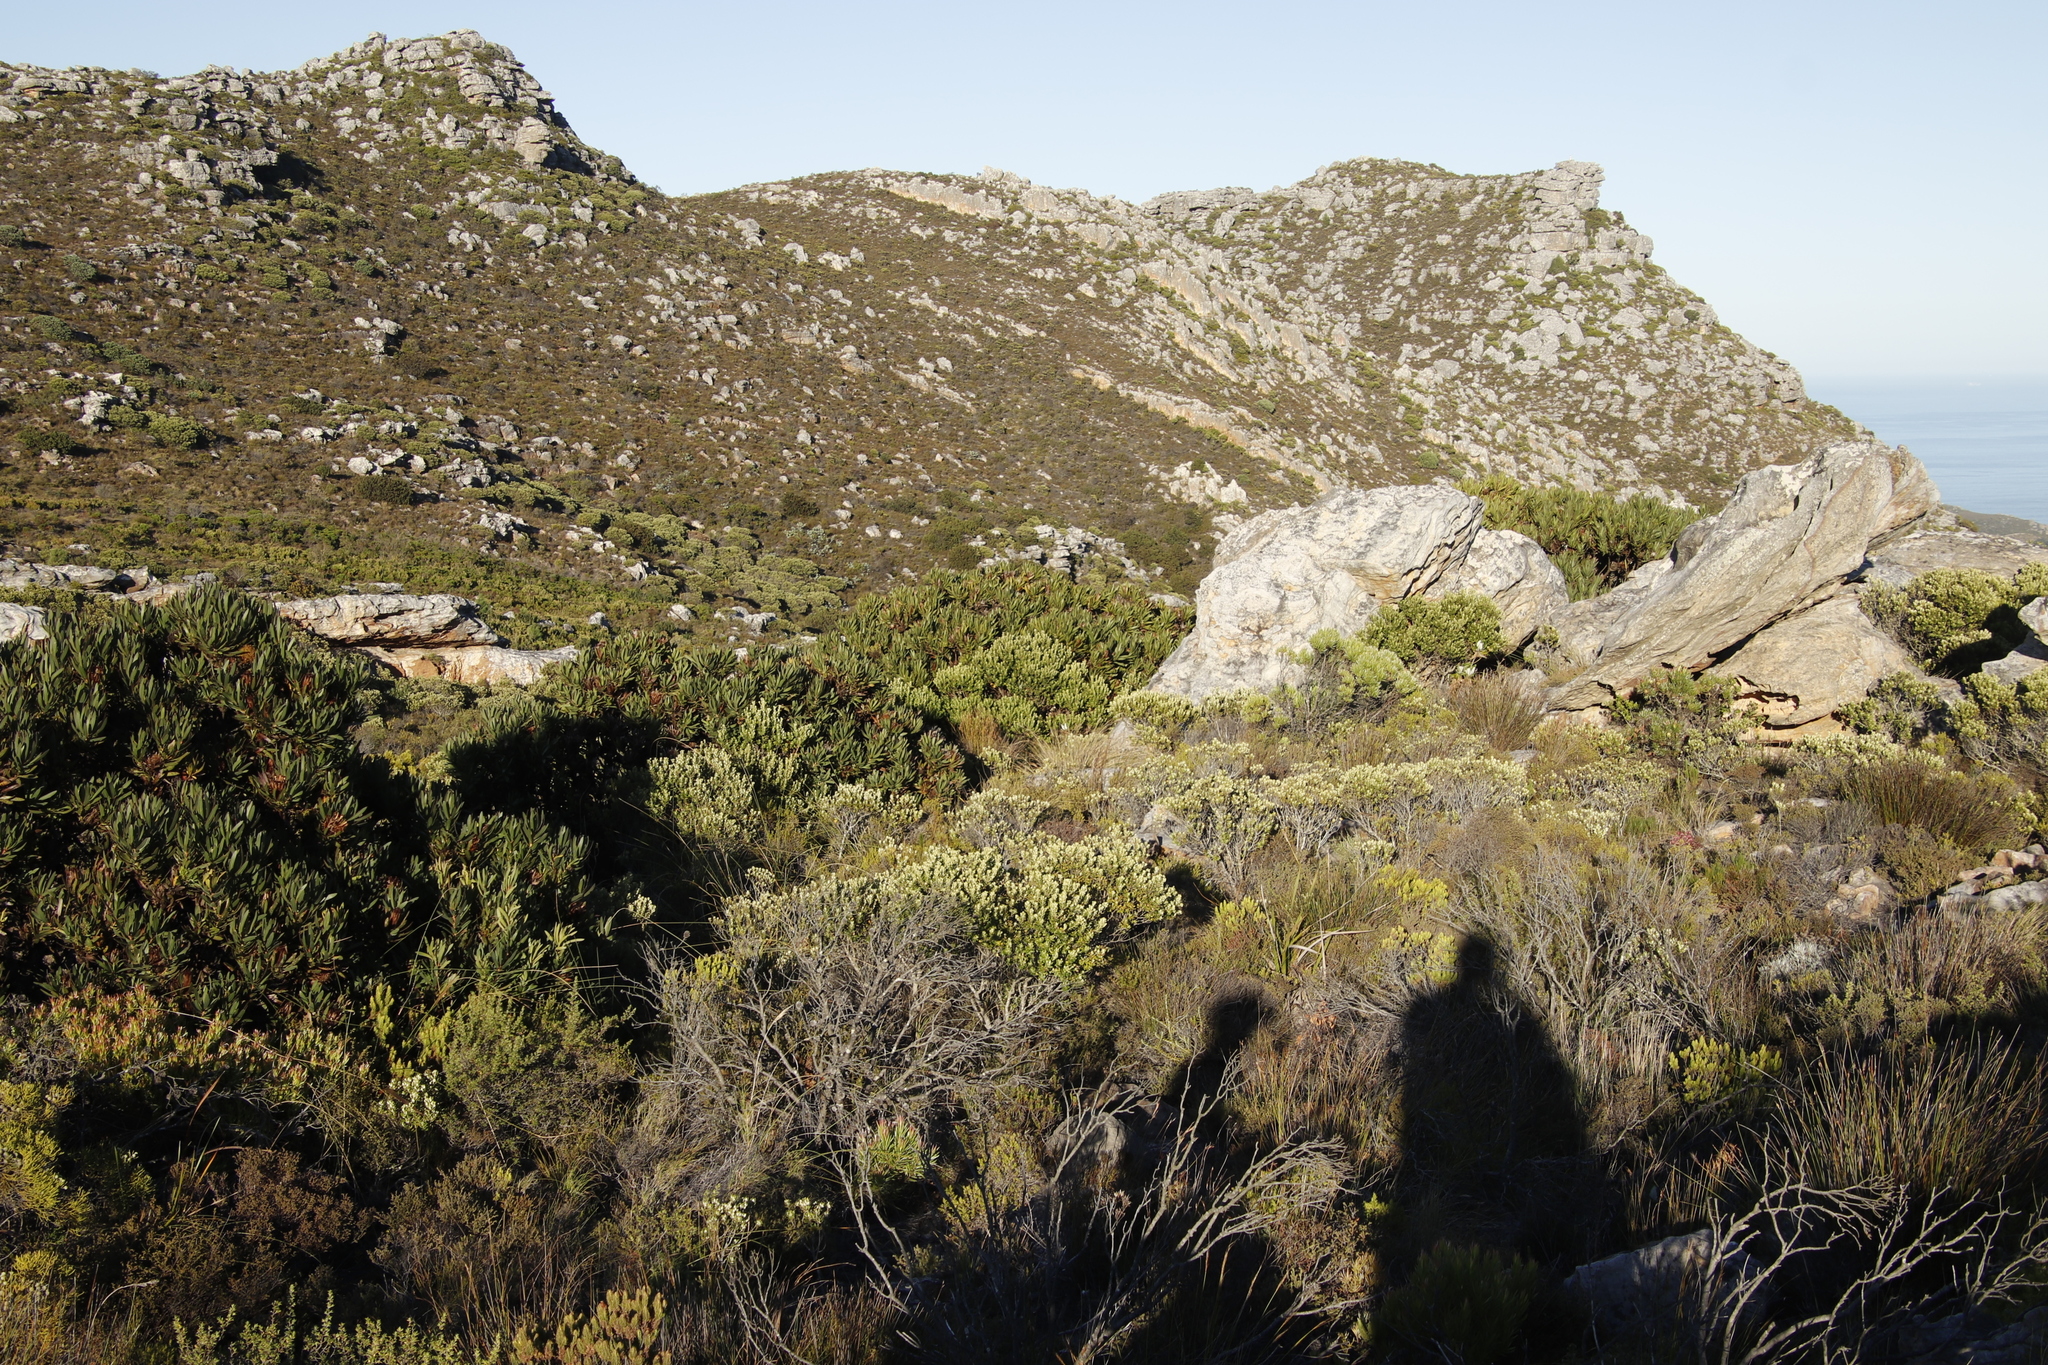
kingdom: Plantae
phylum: Tracheophyta
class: Magnoliopsida
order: Rosales
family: Rhamnaceae
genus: Phylica
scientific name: Phylica buxifolia
